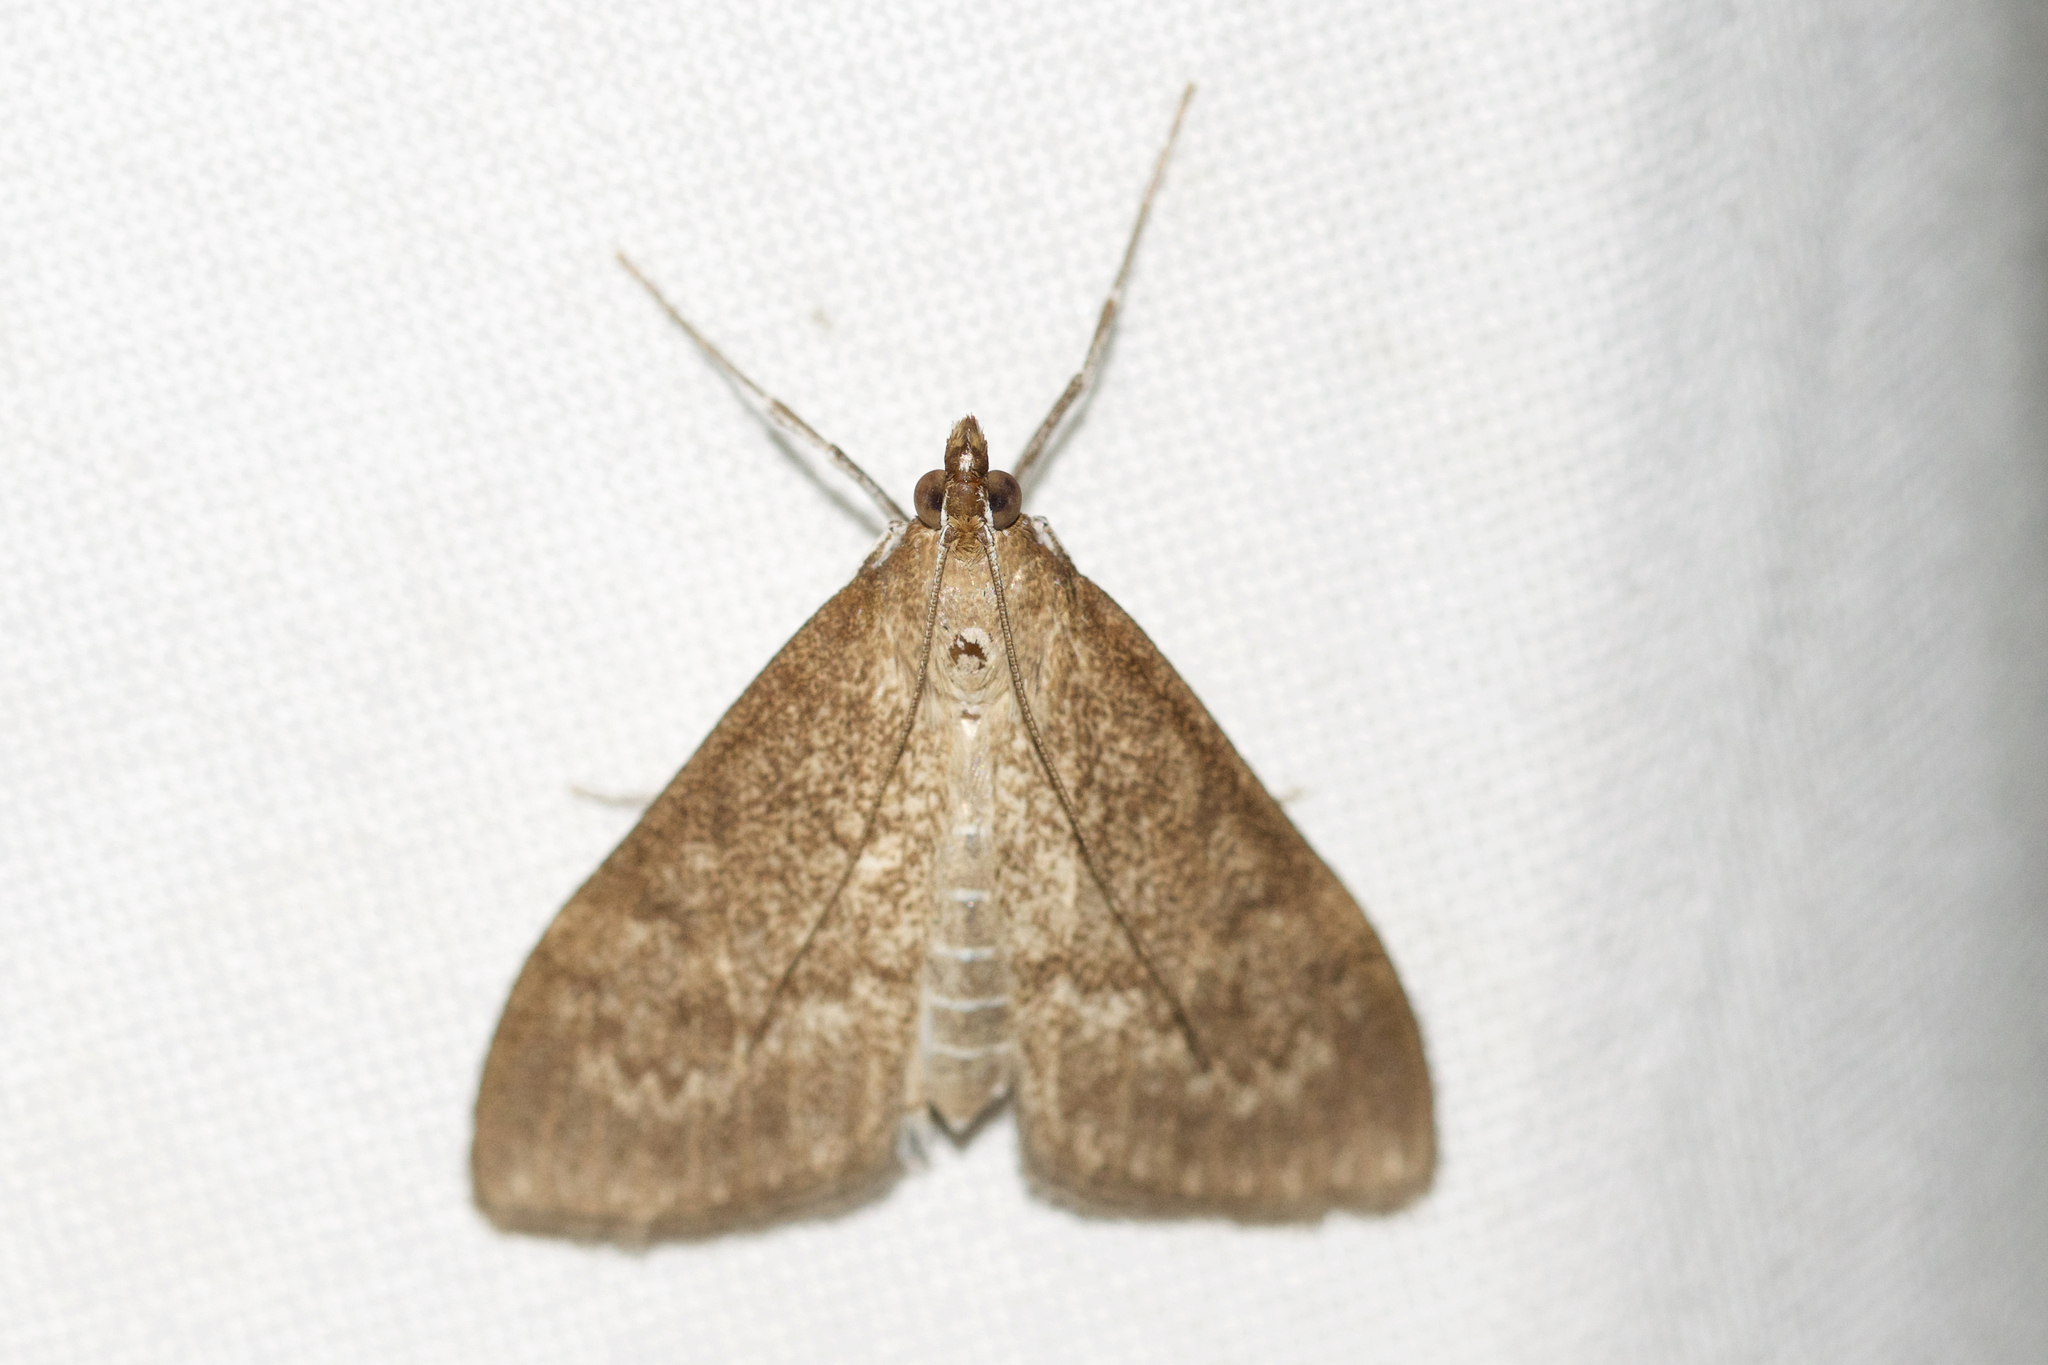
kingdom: Animalia
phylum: Arthropoda
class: Insecta
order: Lepidoptera
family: Crambidae
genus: Saucrobotys
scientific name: Saucrobotys futilalis
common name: Dogbane saucrobotys moth
